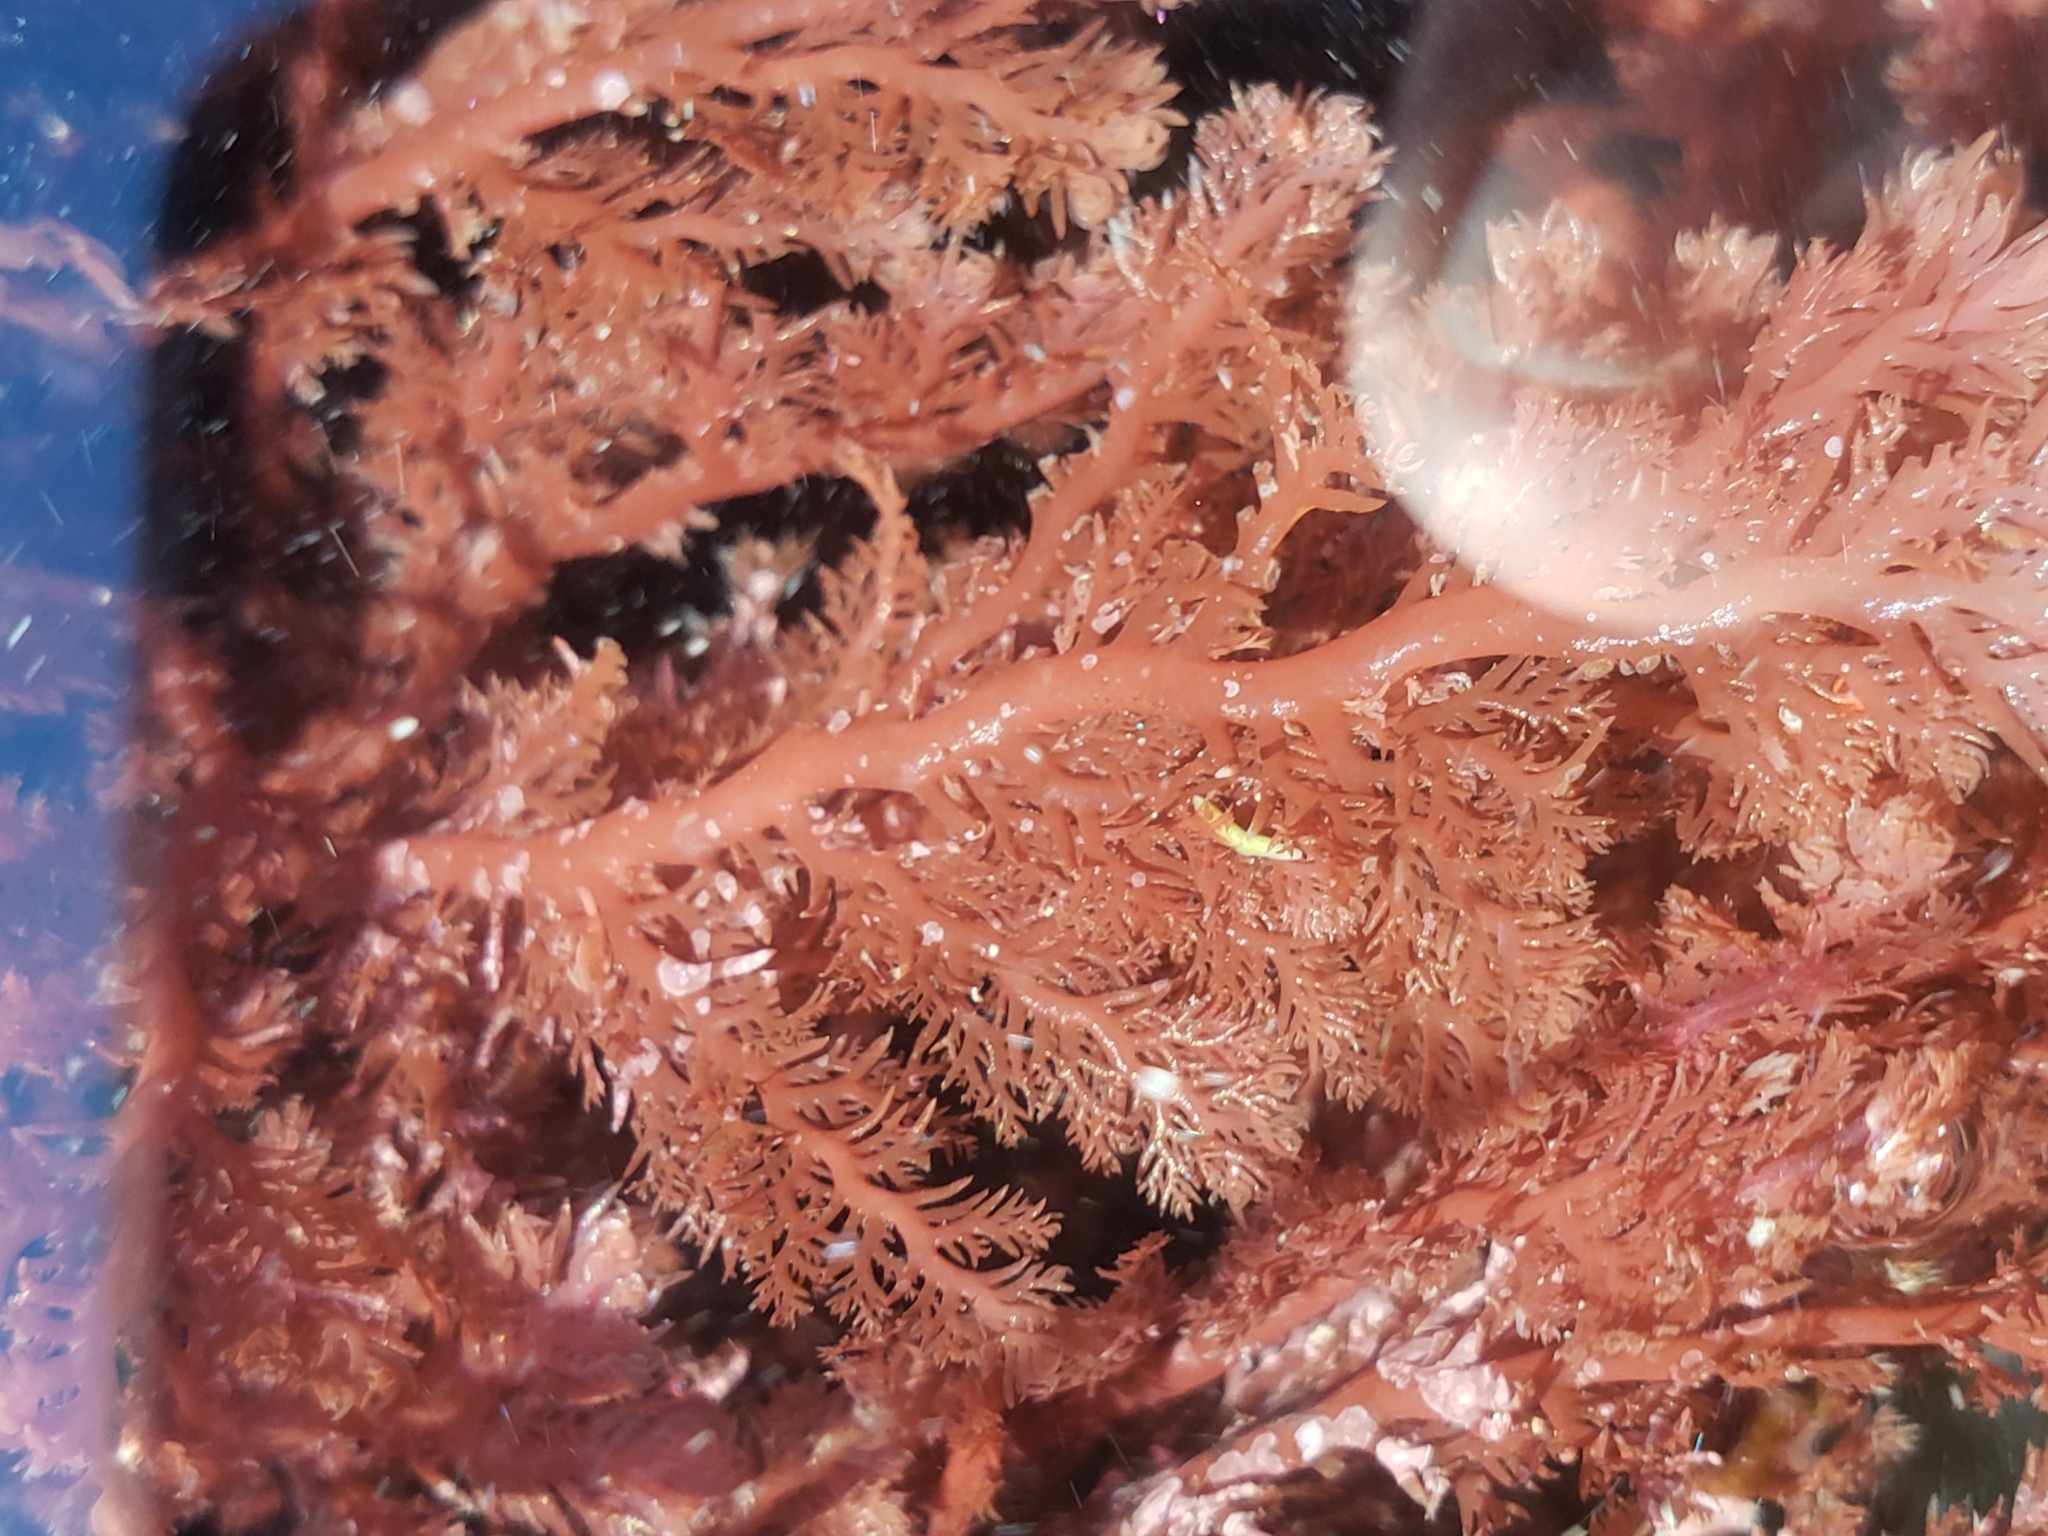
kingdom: Plantae
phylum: Rhodophyta
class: Florideophyceae
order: Plocamiales
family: Plocamiaceae
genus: Plocamium
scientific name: Plocamium cartilagineum
